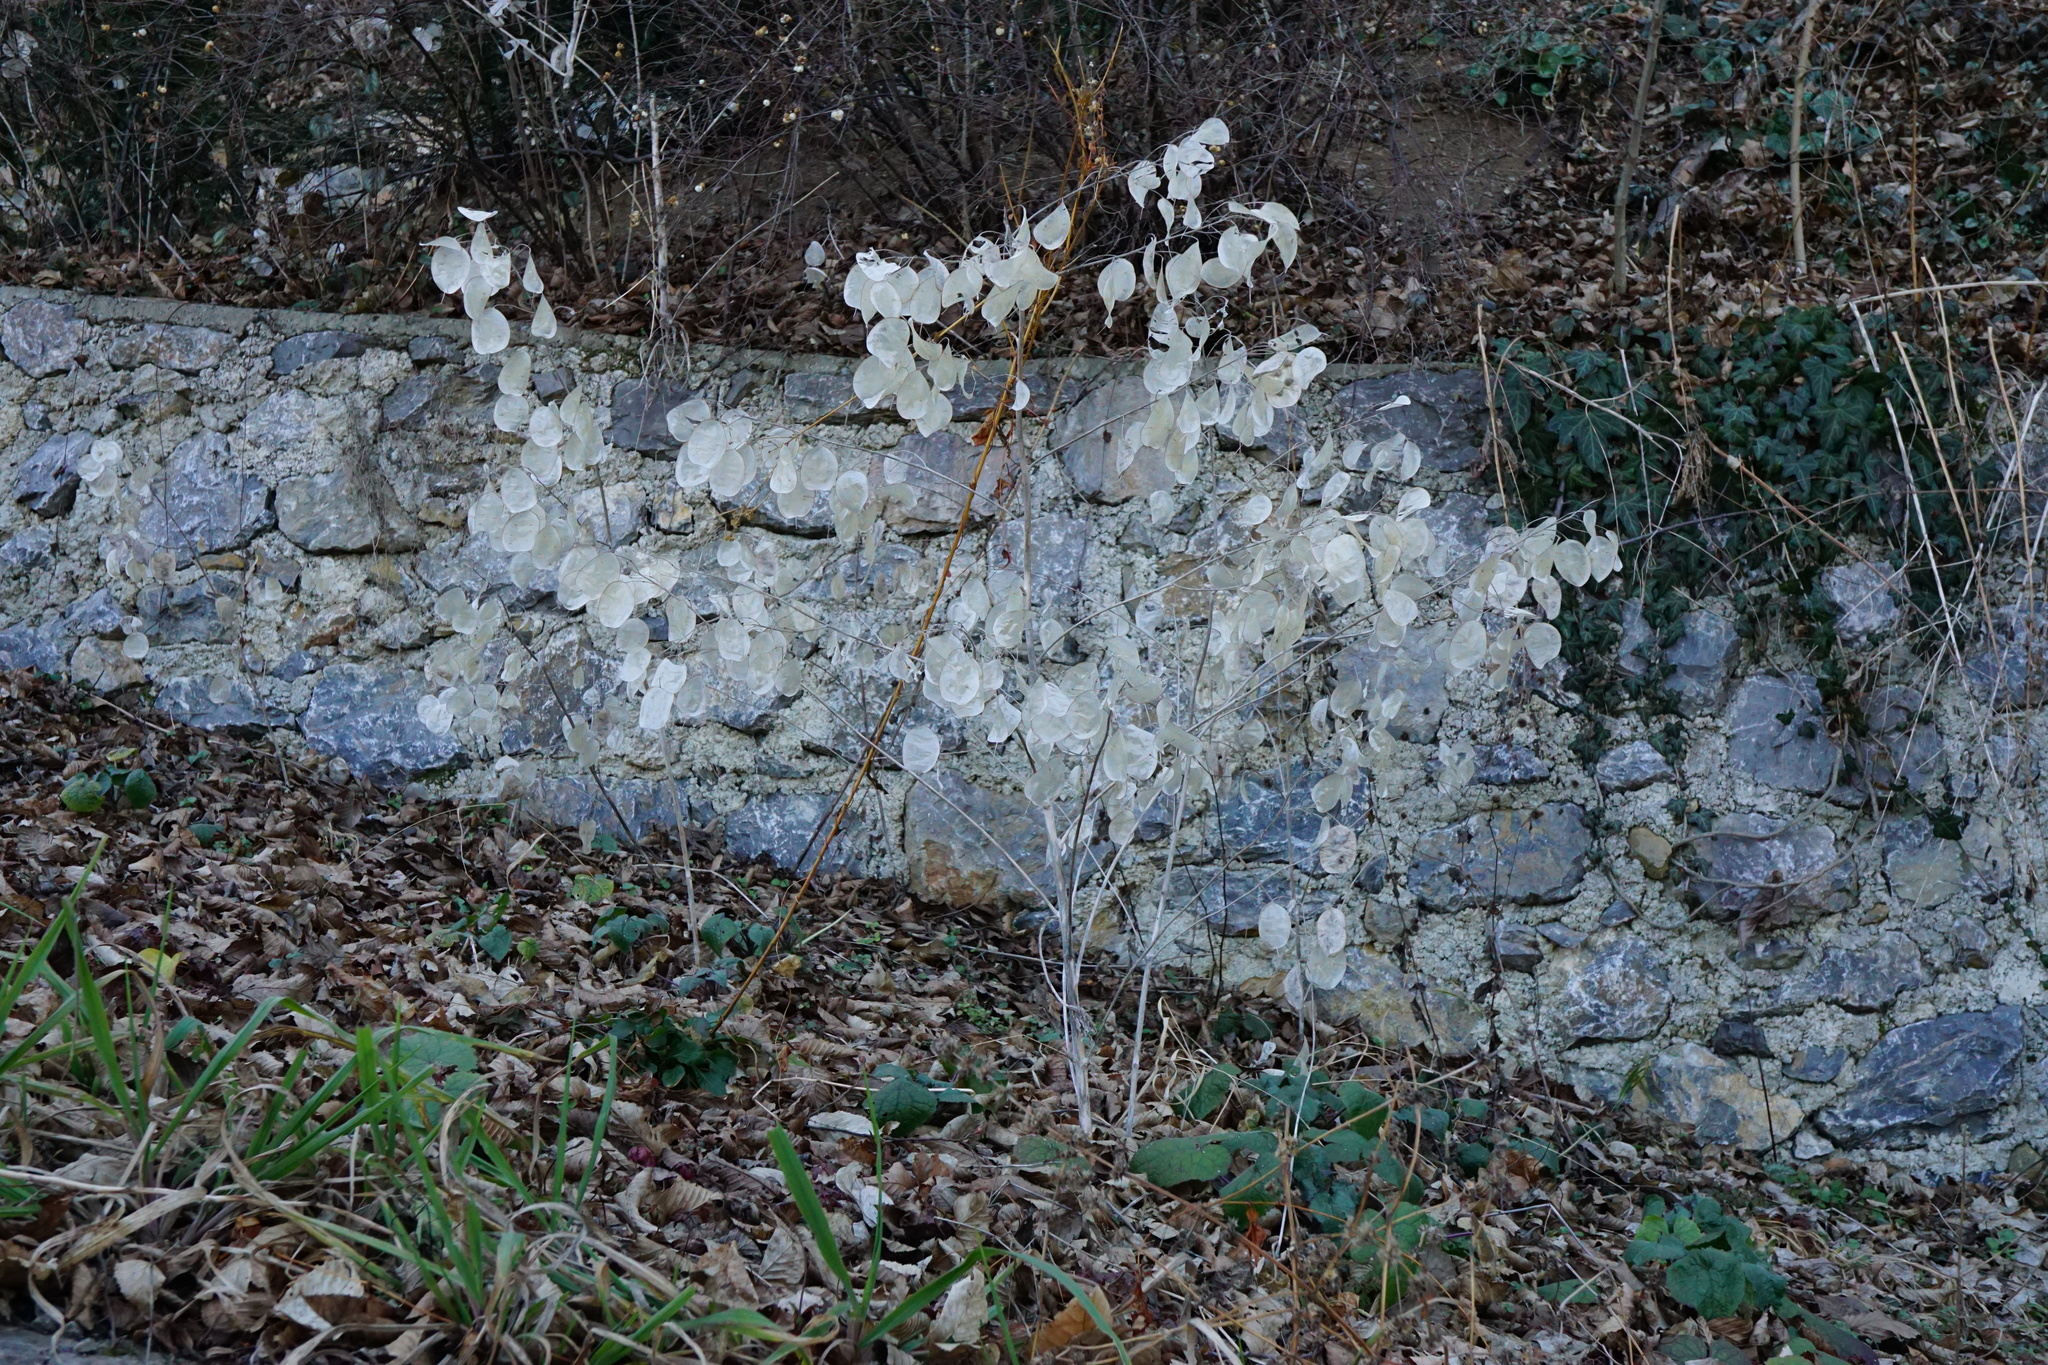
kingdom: Plantae
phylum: Tracheophyta
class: Magnoliopsida
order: Brassicales
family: Brassicaceae
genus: Lunaria
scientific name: Lunaria annua
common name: Honesty
